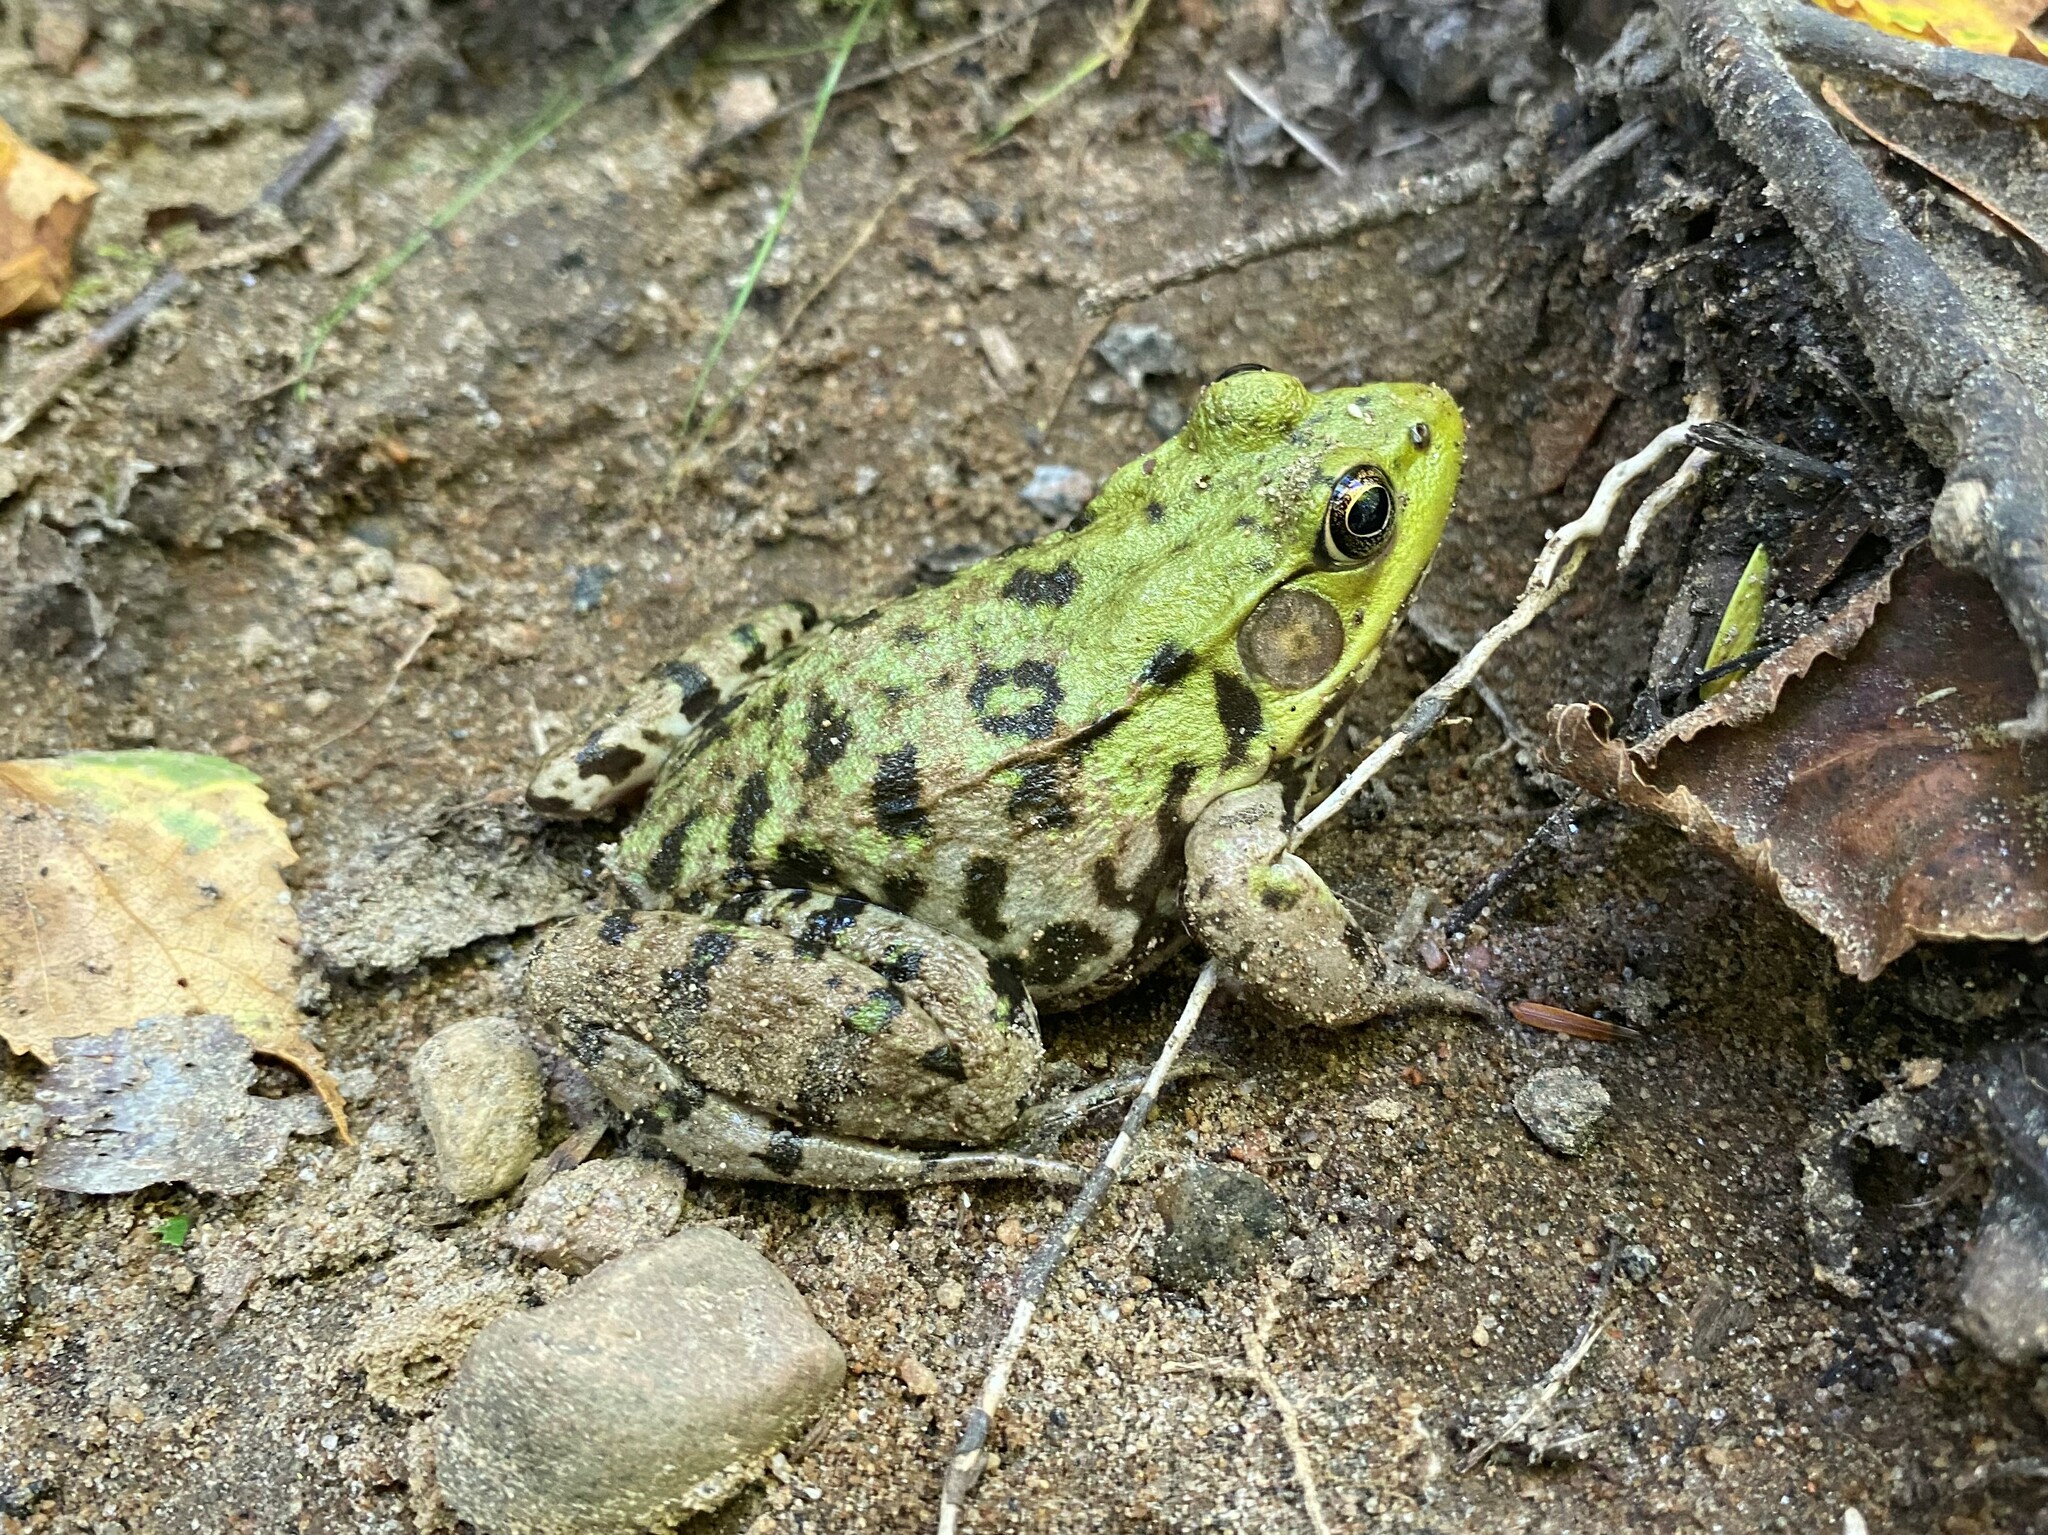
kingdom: Animalia
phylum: Chordata
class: Amphibia
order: Anura
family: Ranidae
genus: Lithobates
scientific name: Lithobates clamitans
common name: Green frog
